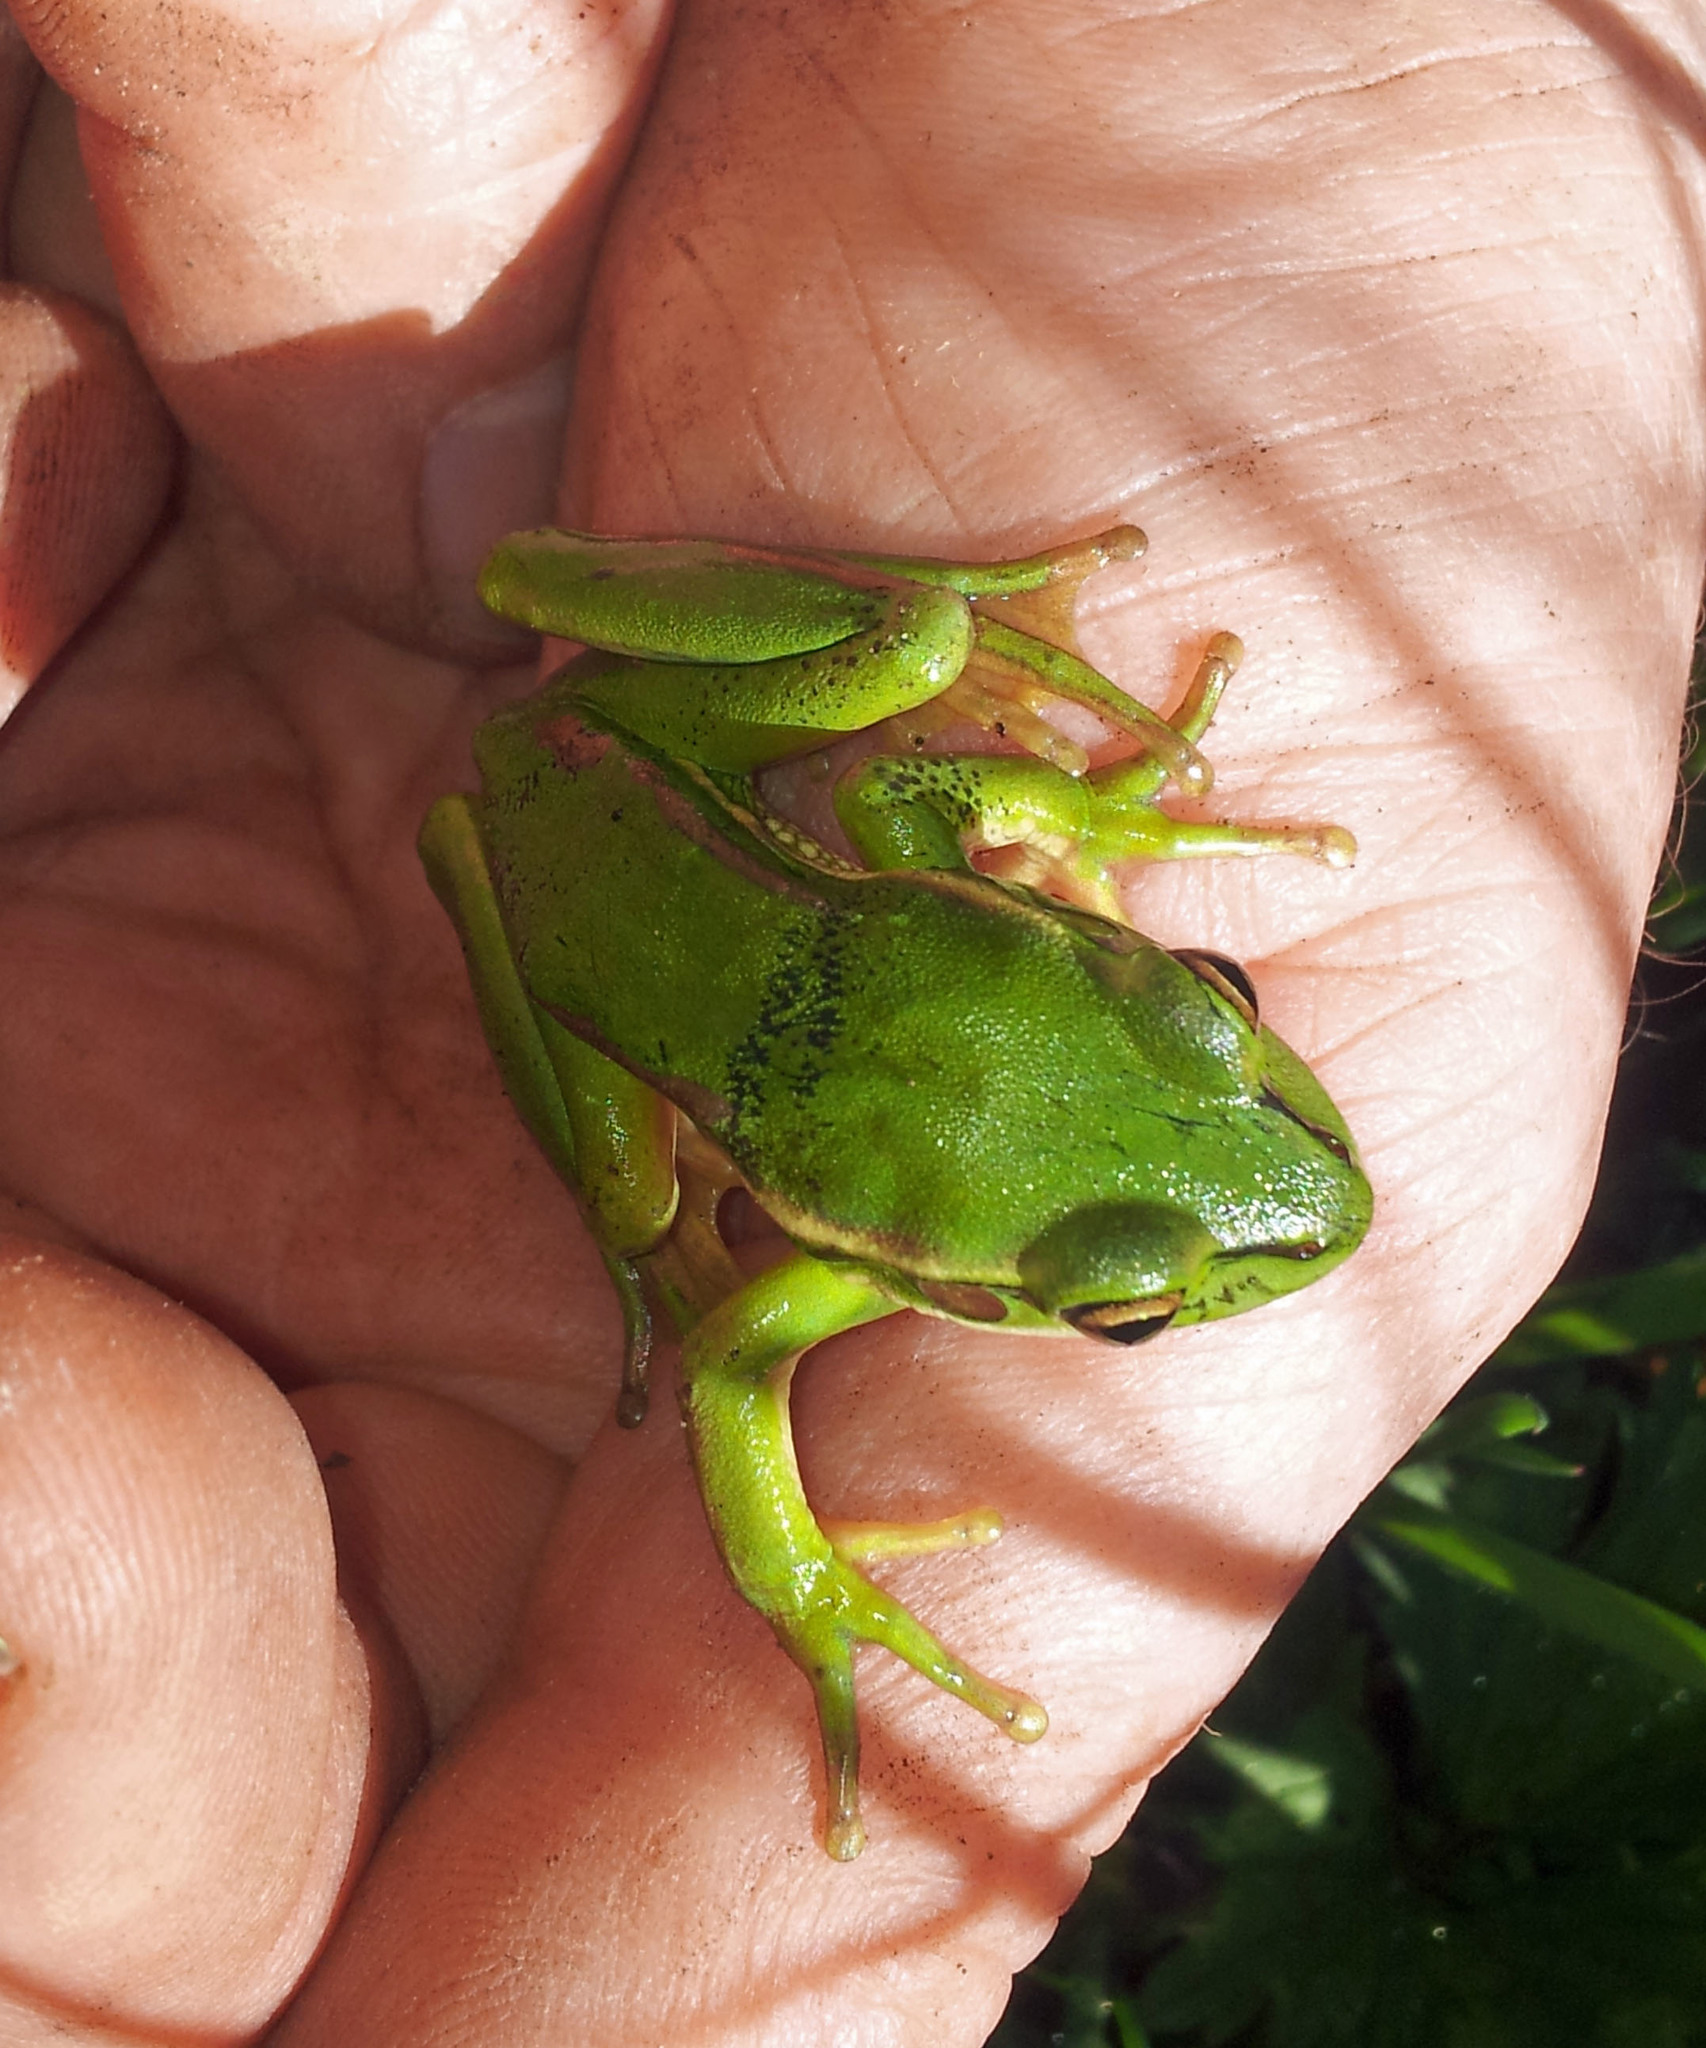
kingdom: Animalia
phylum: Chordata
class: Amphibia
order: Anura
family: Pelodryadidae
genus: Ranoidea
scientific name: Ranoidea aurea
